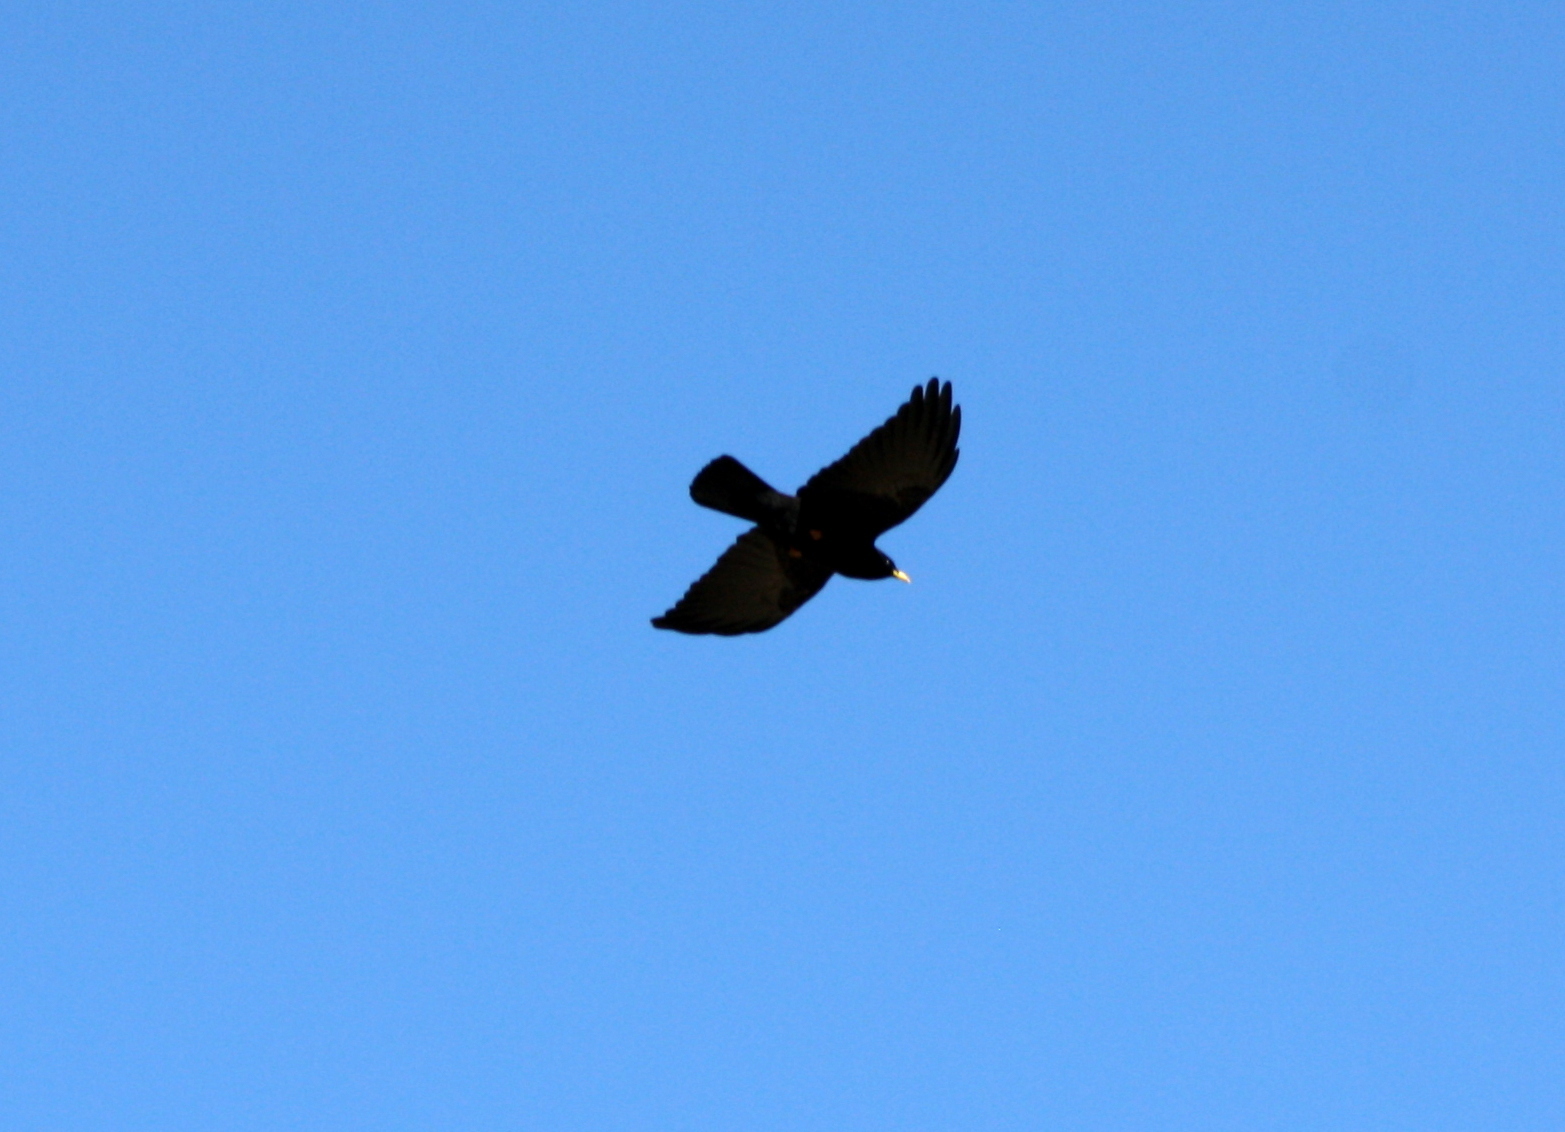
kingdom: Animalia
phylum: Chordata
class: Aves
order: Passeriformes
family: Corvidae
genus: Pyrrhocorax
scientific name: Pyrrhocorax graculus
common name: Alpine chough
